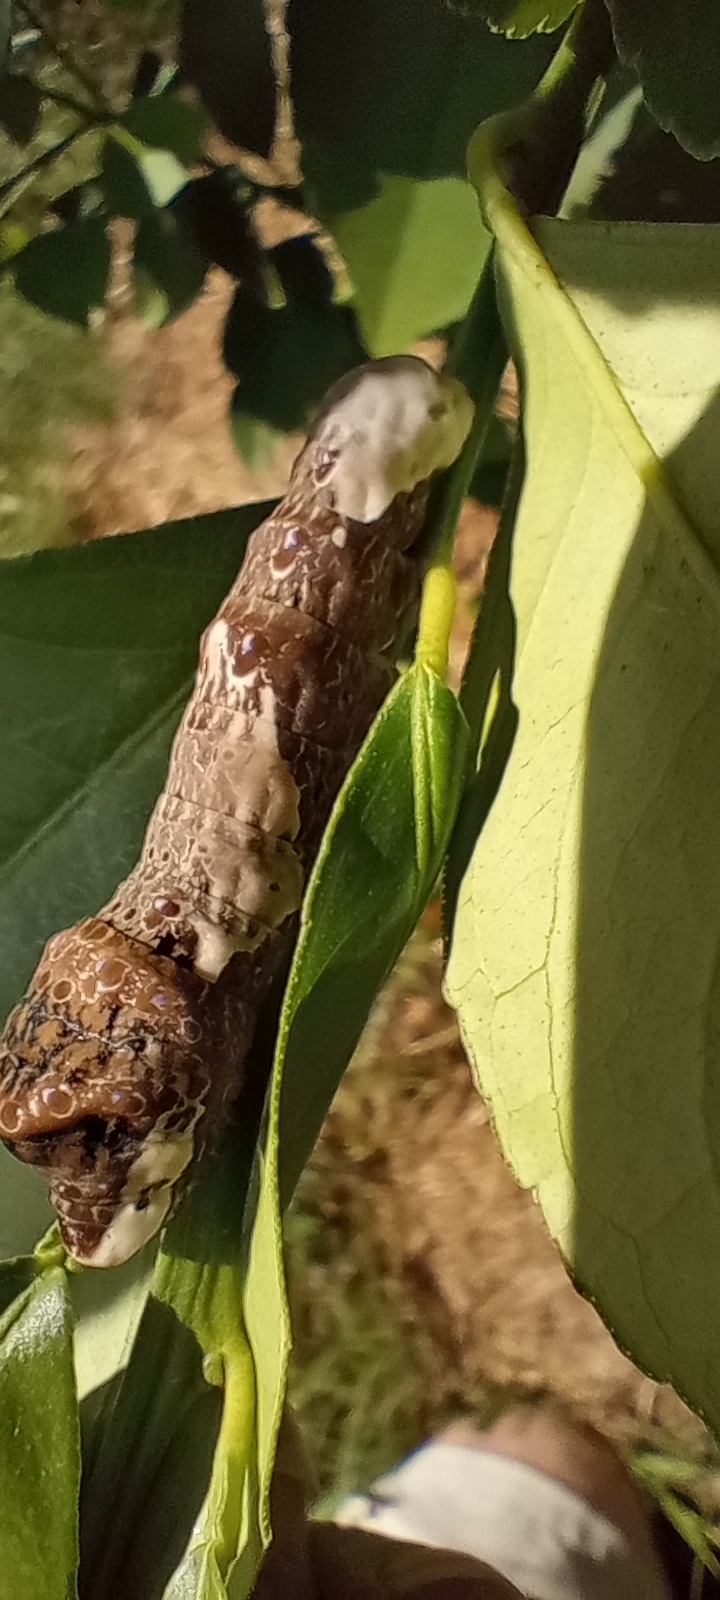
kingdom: Animalia
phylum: Arthropoda
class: Insecta
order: Lepidoptera
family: Papilionidae
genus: Papilio
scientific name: Papilio cresphontes
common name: Giant swallowtail
